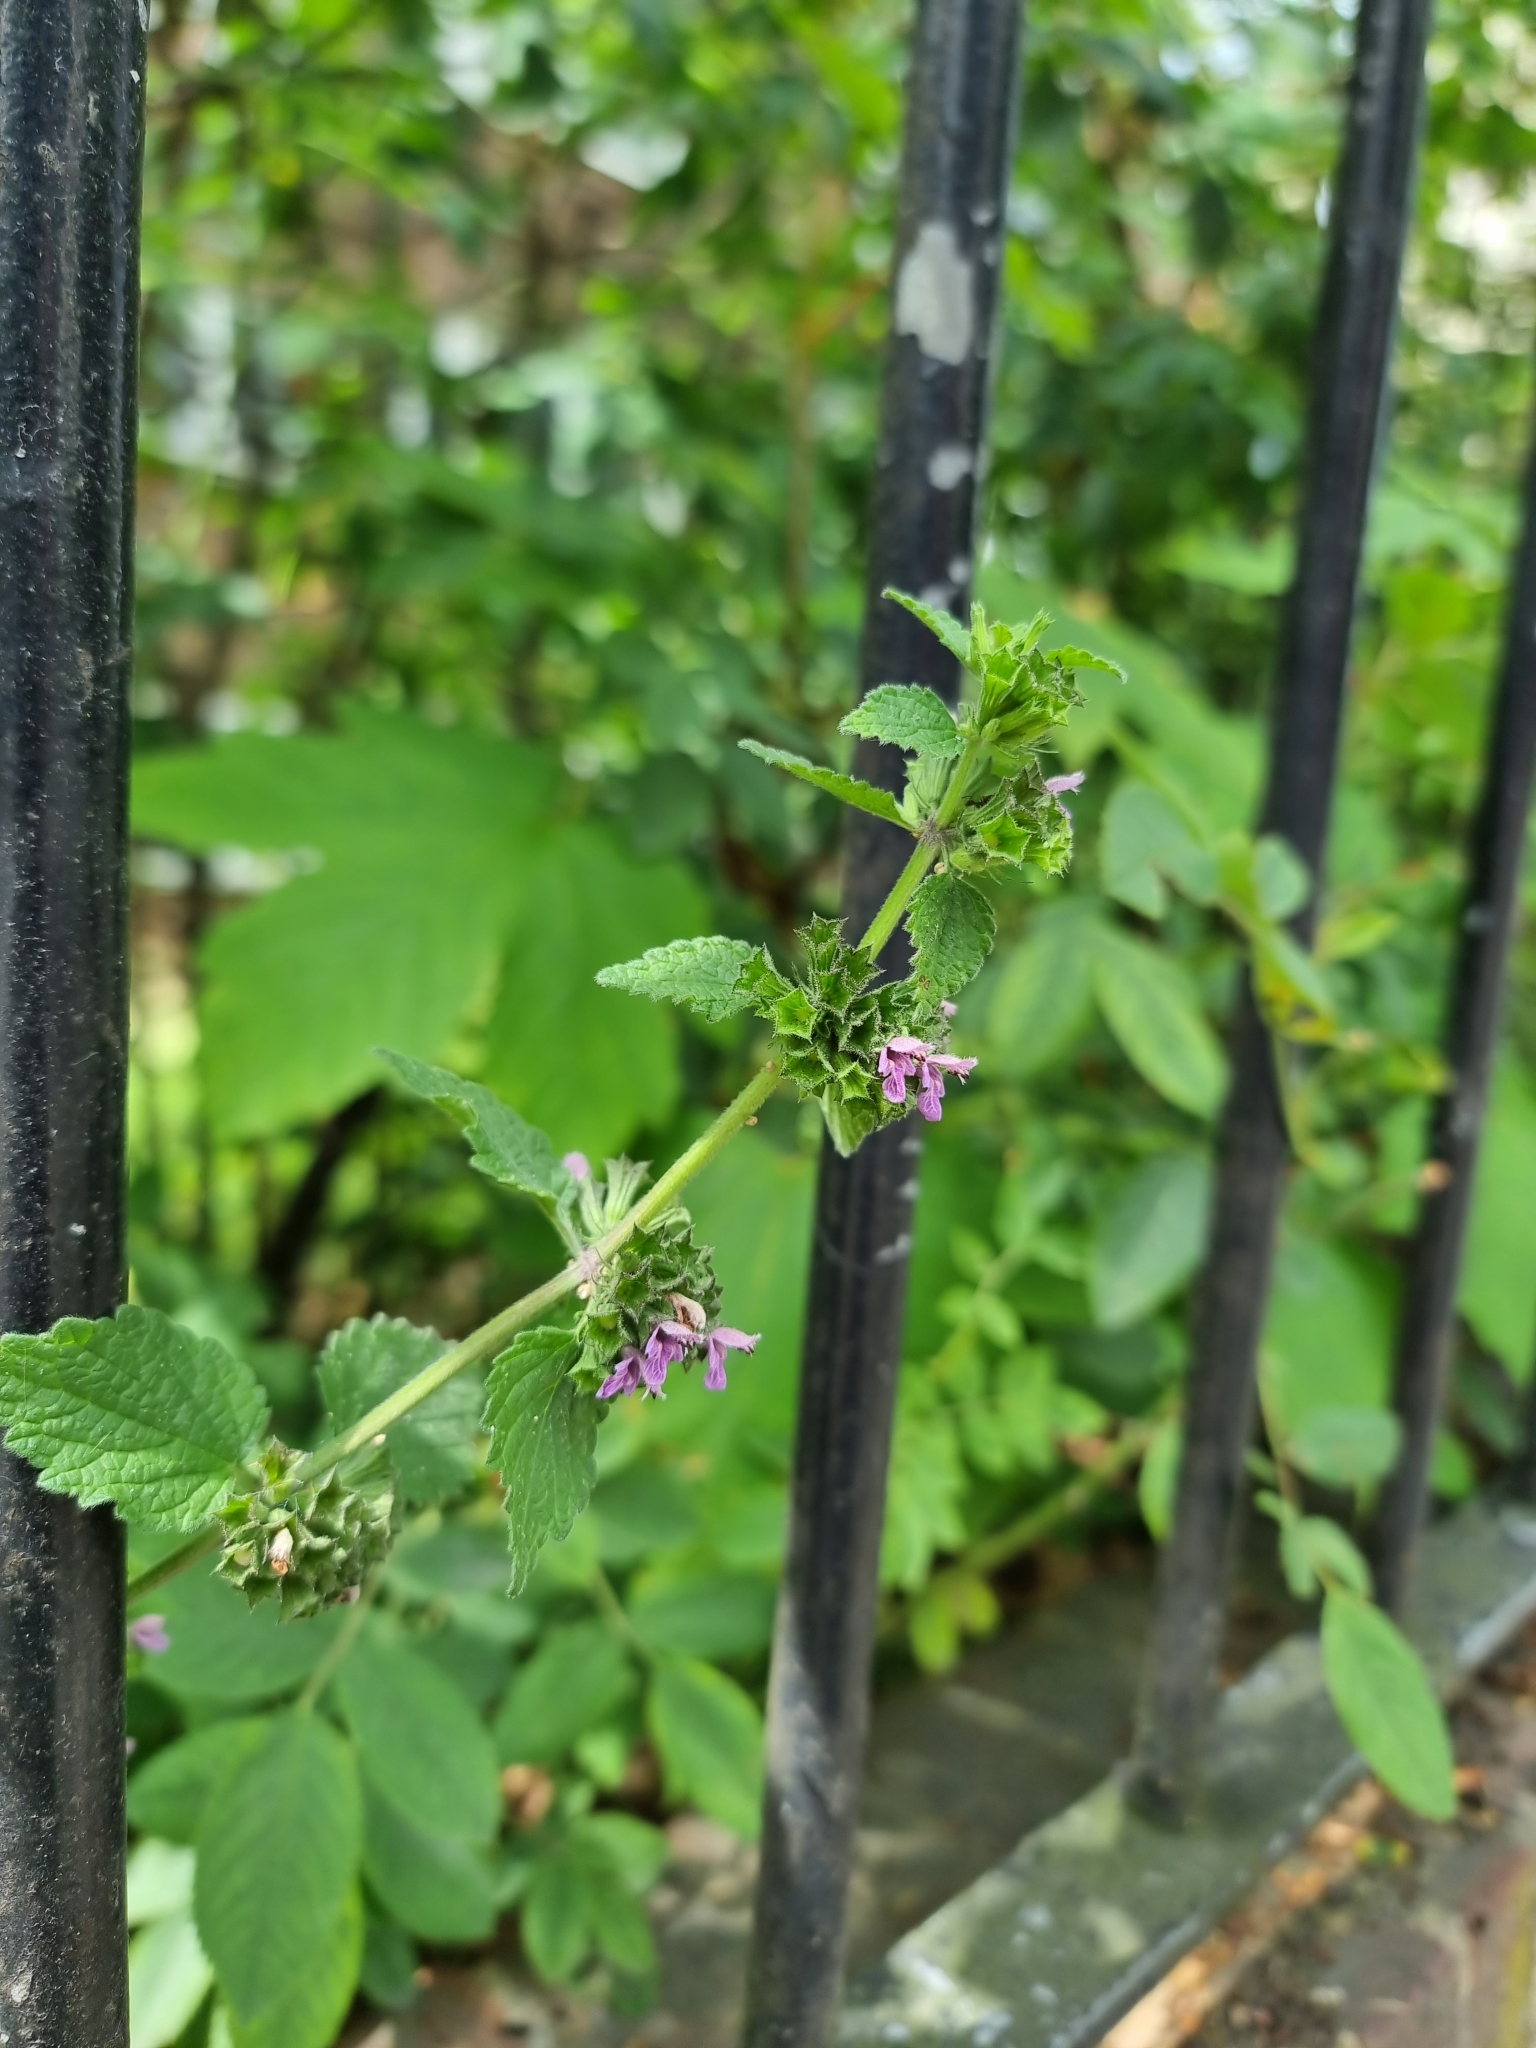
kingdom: Plantae
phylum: Tracheophyta
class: Magnoliopsida
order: Lamiales
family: Lamiaceae
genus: Ballota
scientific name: Ballota nigra
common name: Black horehound
